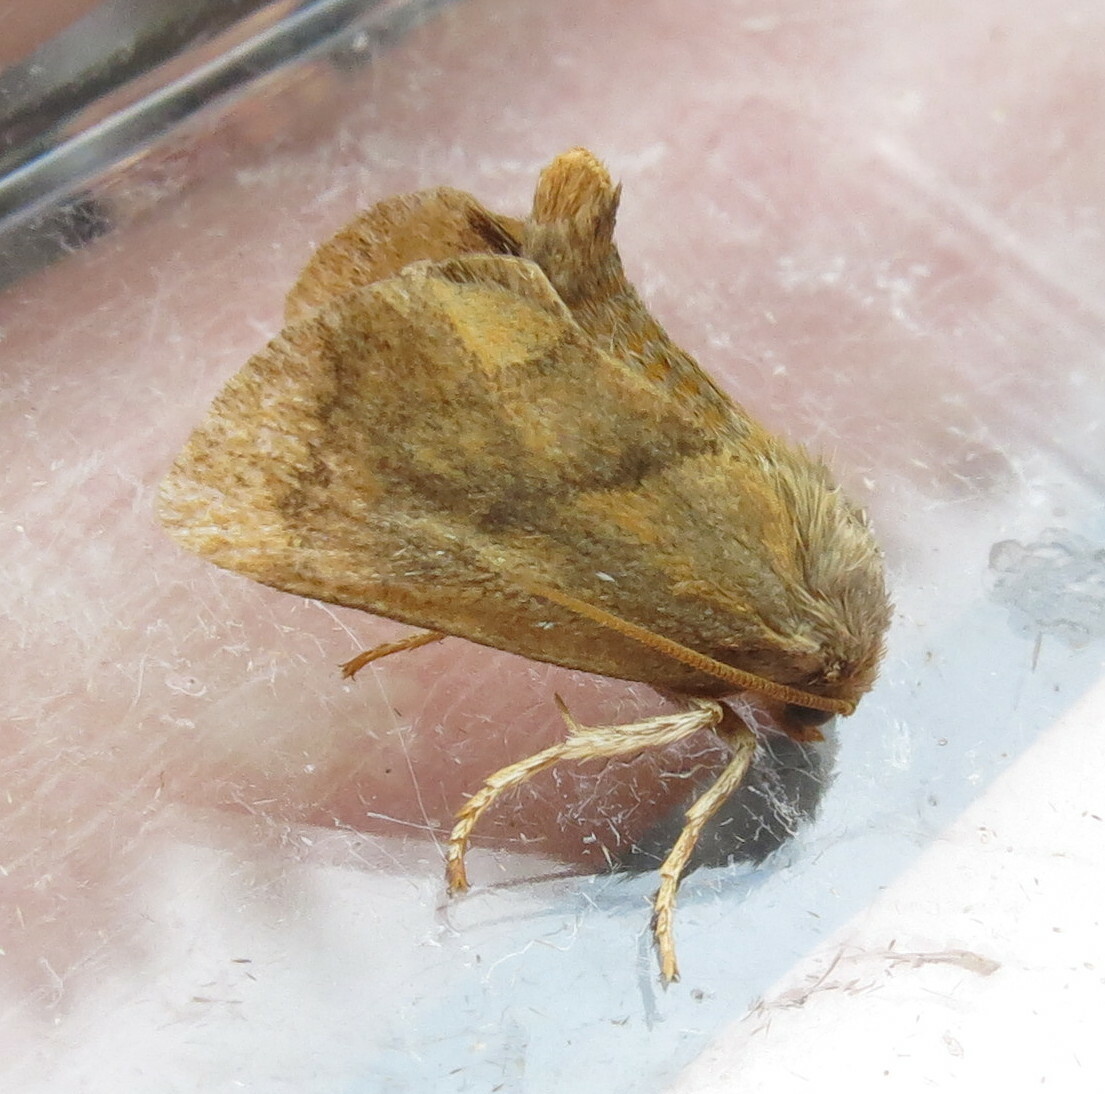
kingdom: Animalia
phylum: Arthropoda
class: Insecta
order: Lepidoptera
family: Limacodidae
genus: Apoda
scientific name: Apoda limacodes
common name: Festoon
